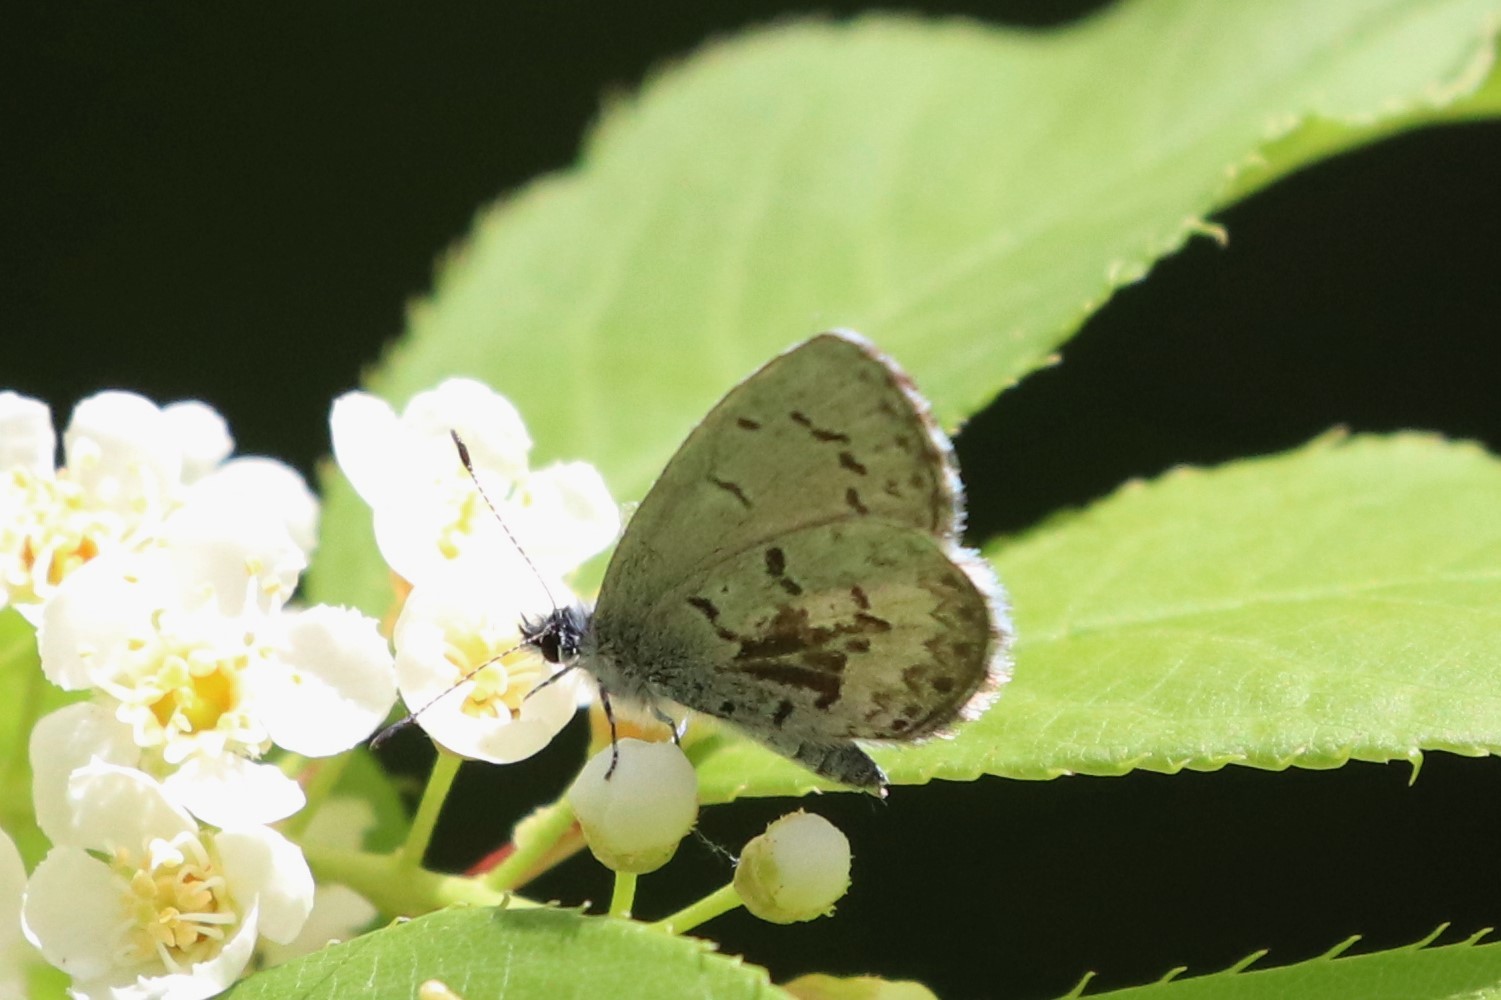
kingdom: Animalia
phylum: Arthropoda
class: Insecta
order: Lepidoptera
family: Lycaenidae
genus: Celastrina
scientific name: Celastrina lucia
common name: Lucia azure
